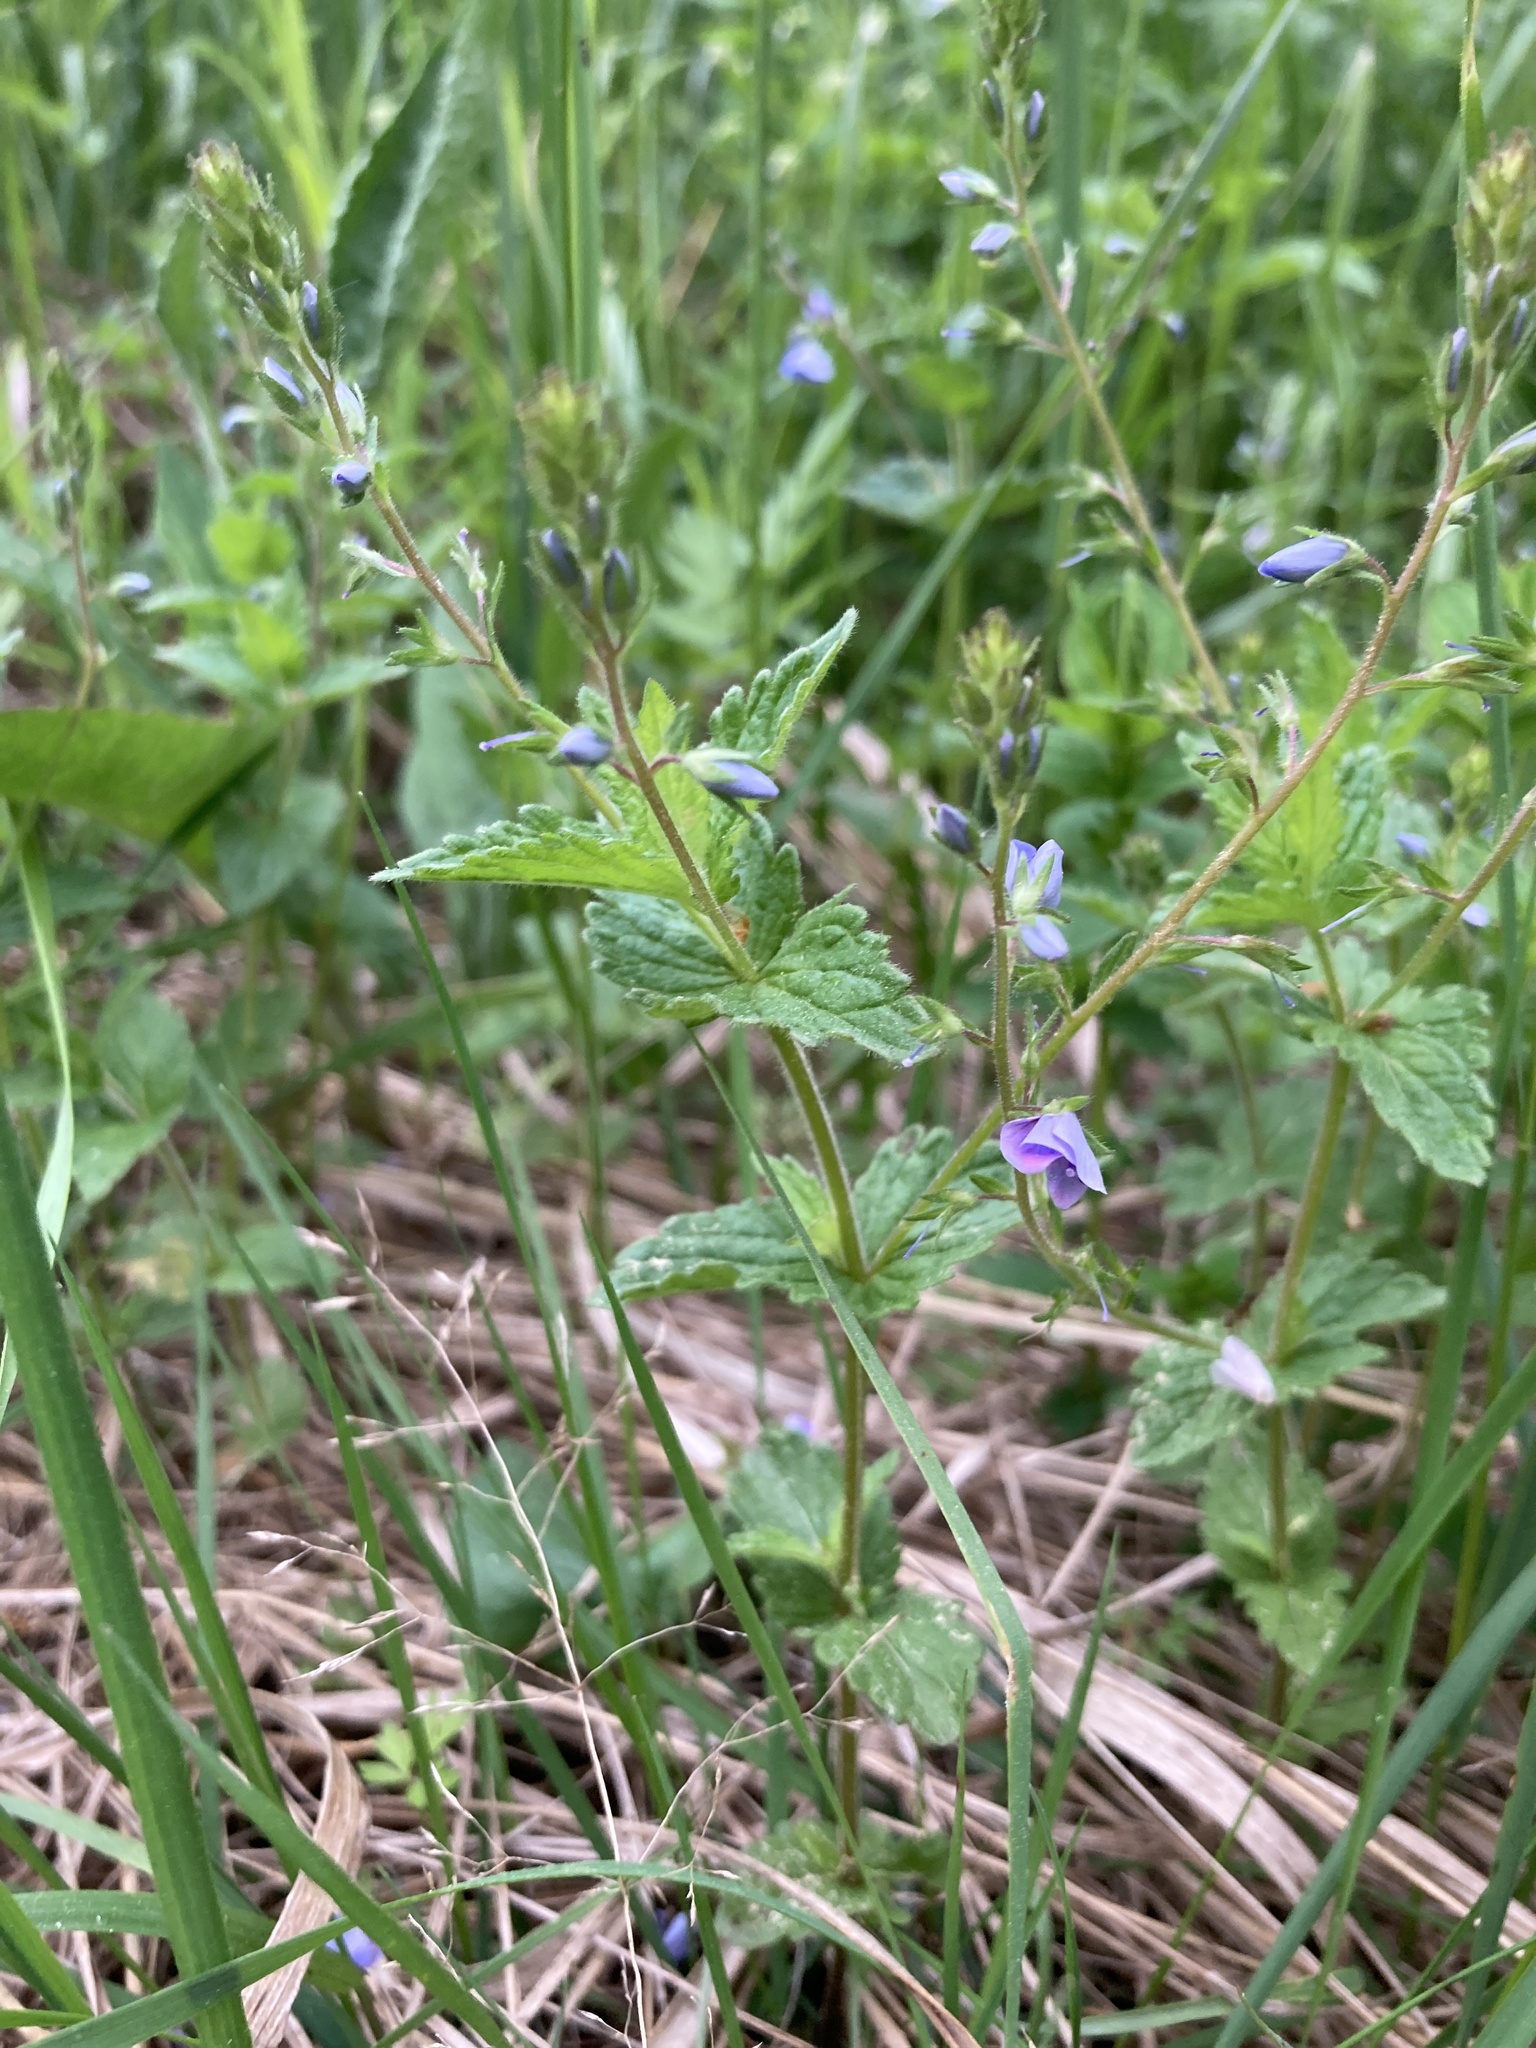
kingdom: Plantae
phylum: Tracheophyta
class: Magnoliopsida
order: Lamiales
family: Plantaginaceae
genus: Veronica
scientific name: Veronica chamaedrys
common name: Germander speedwell
